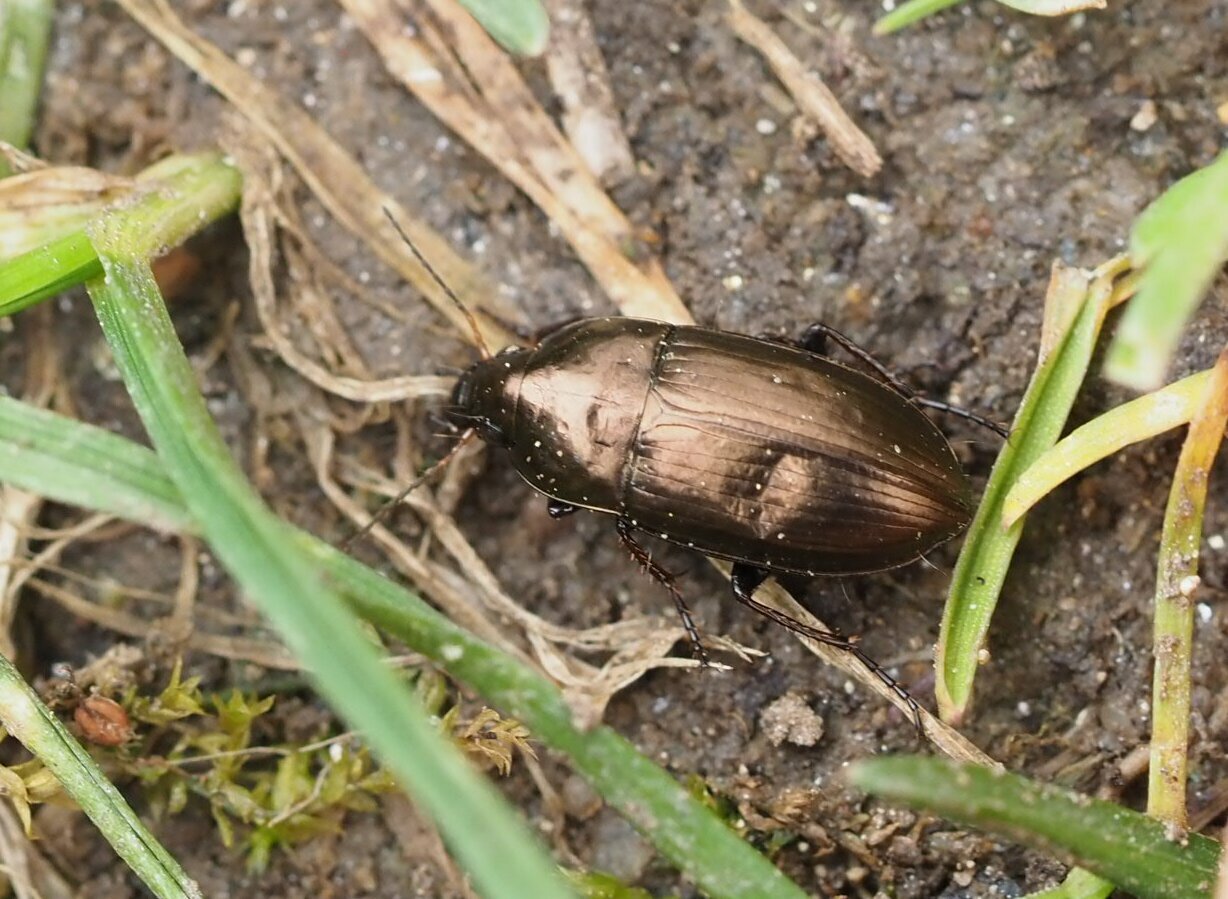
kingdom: Animalia
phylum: Arthropoda
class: Insecta
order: Coleoptera
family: Carabidae
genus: Amara
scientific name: Amara aenea
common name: Common sun beetle
